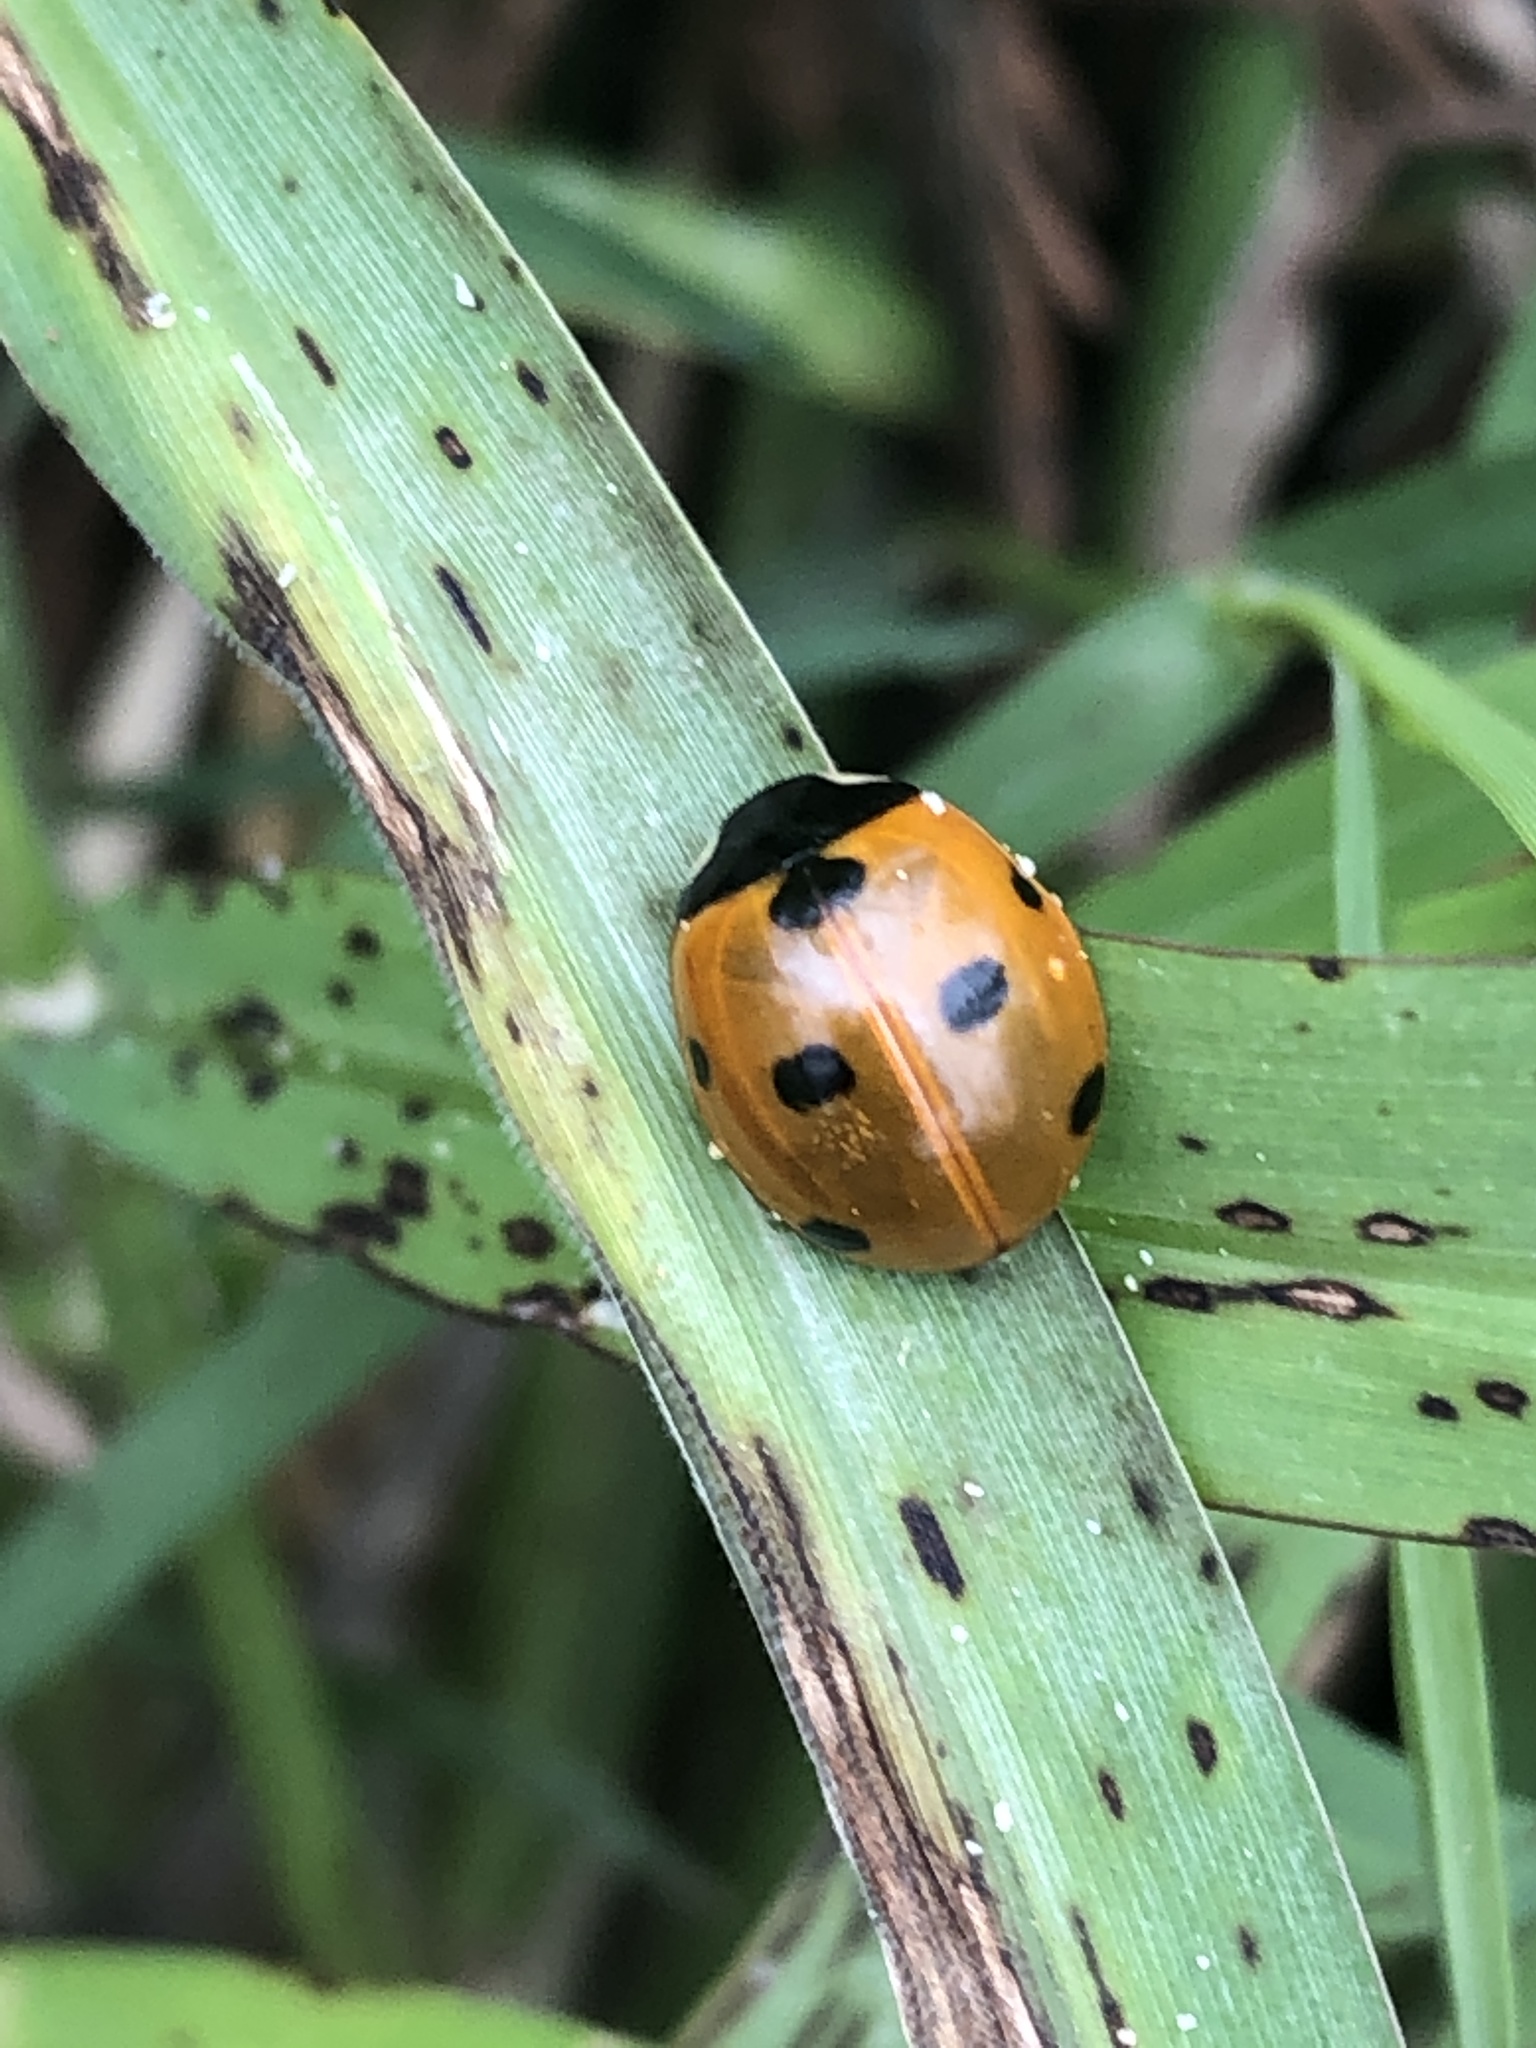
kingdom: Animalia
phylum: Arthropoda
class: Insecta
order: Coleoptera
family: Coccinellidae
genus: Coccinella
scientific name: Coccinella septempunctata
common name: Sevenspotted lady beetle
